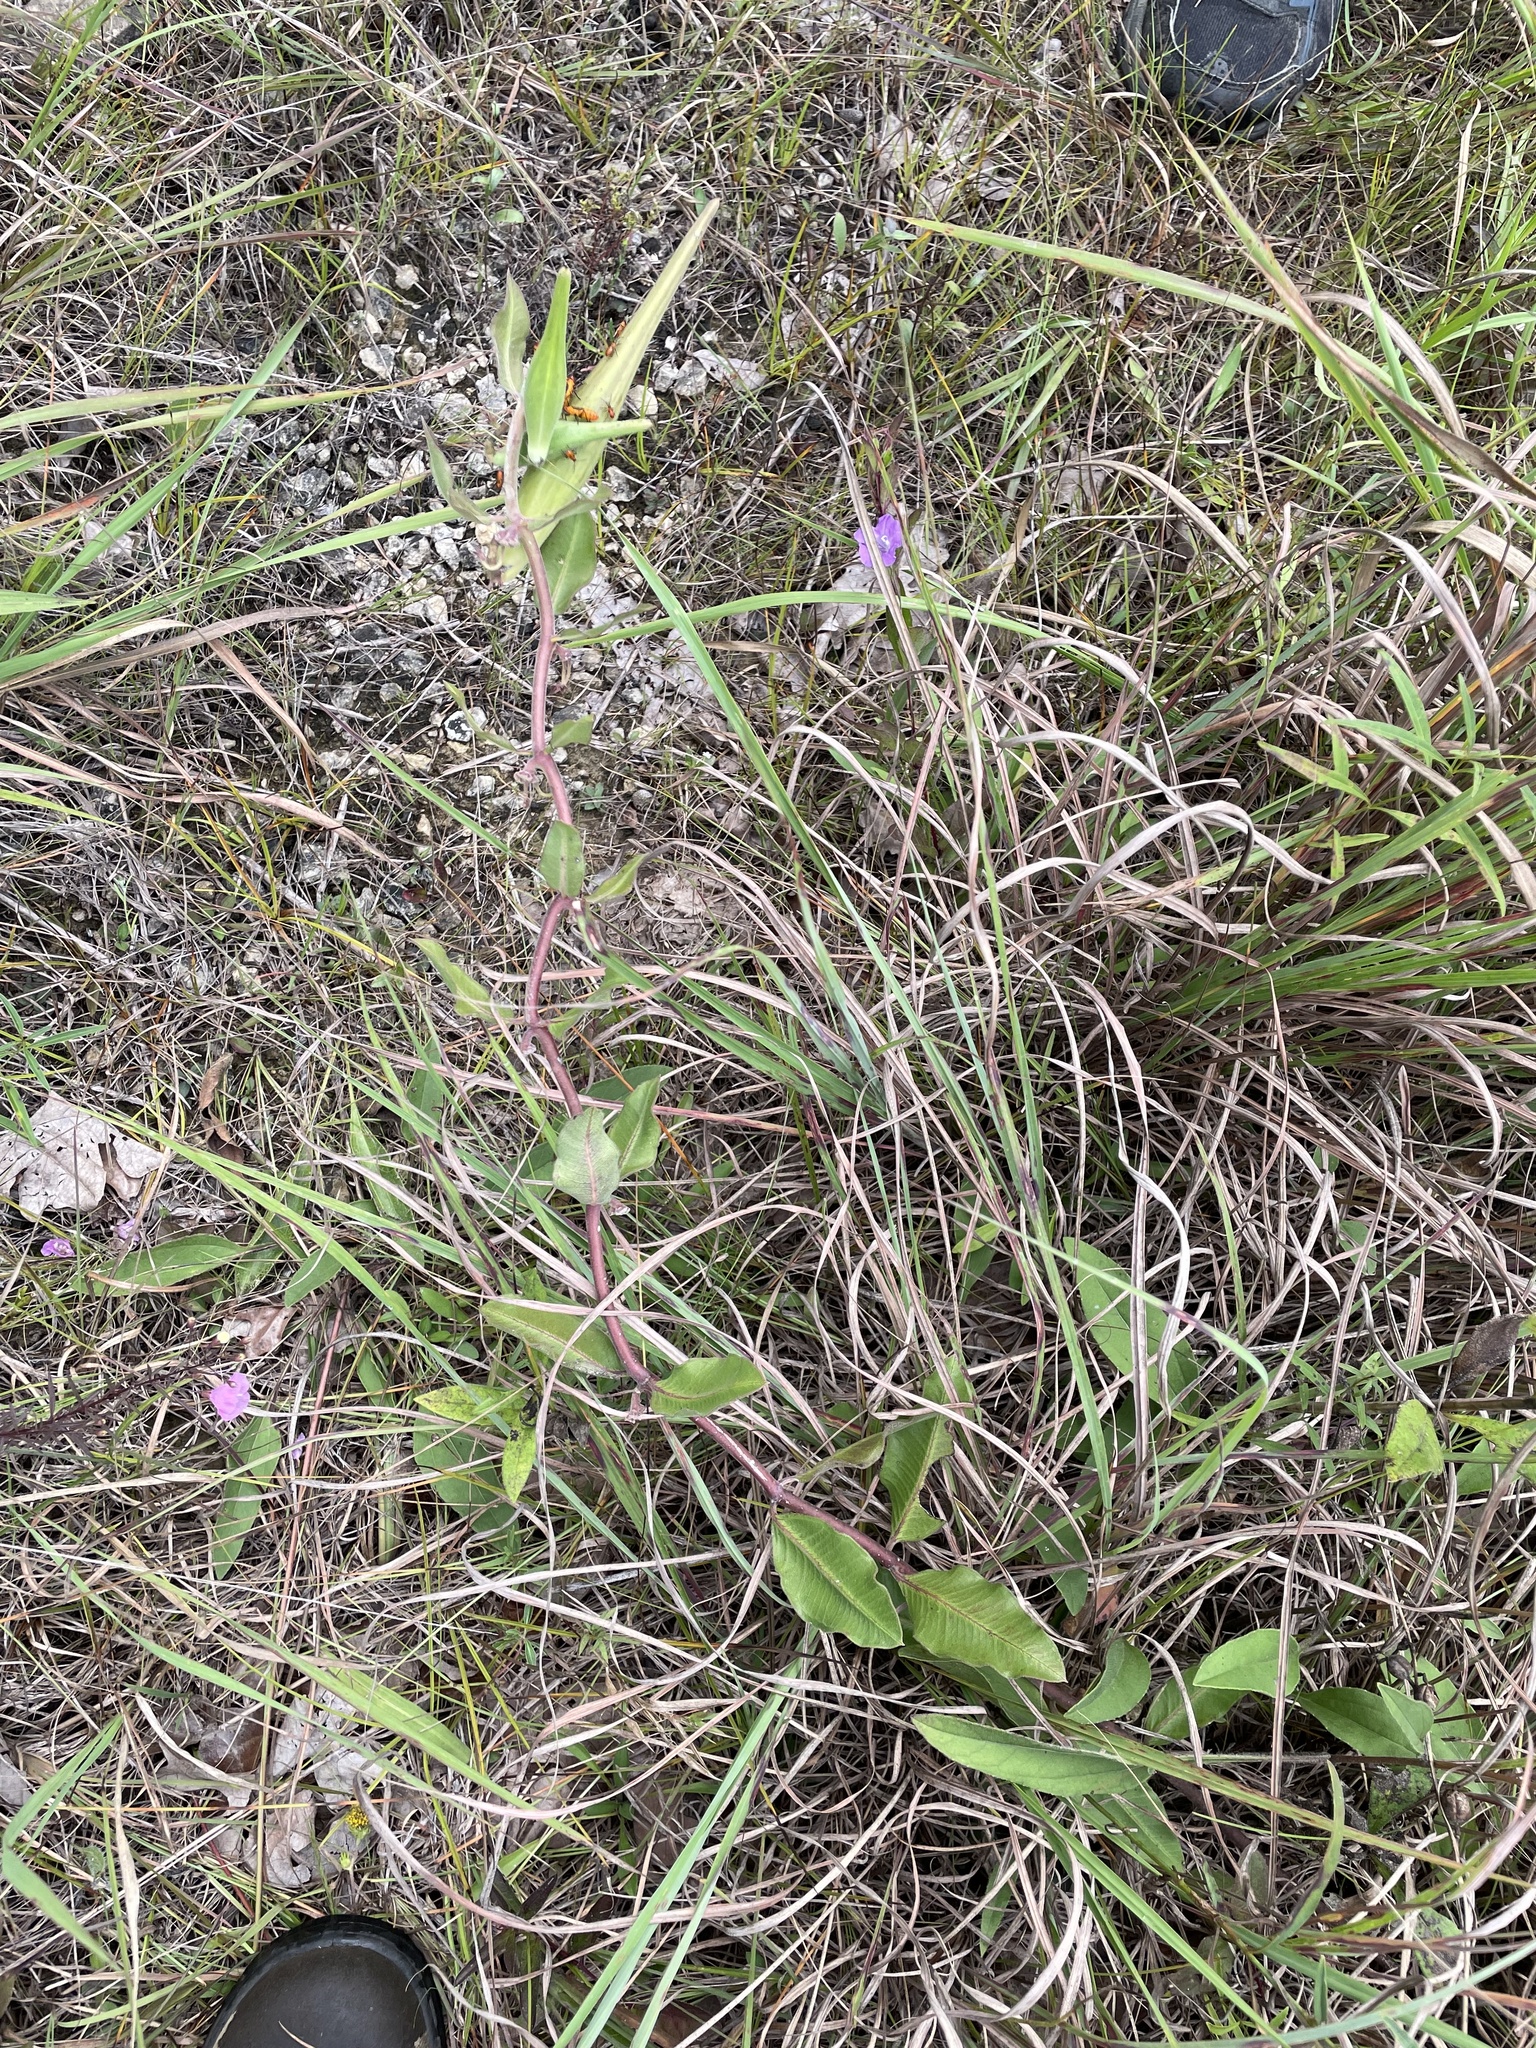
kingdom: Plantae
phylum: Tracheophyta
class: Magnoliopsida
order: Gentianales
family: Apocynaceae
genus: Asclepias
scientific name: Asclepias viridiflora
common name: Green comet milkweed
